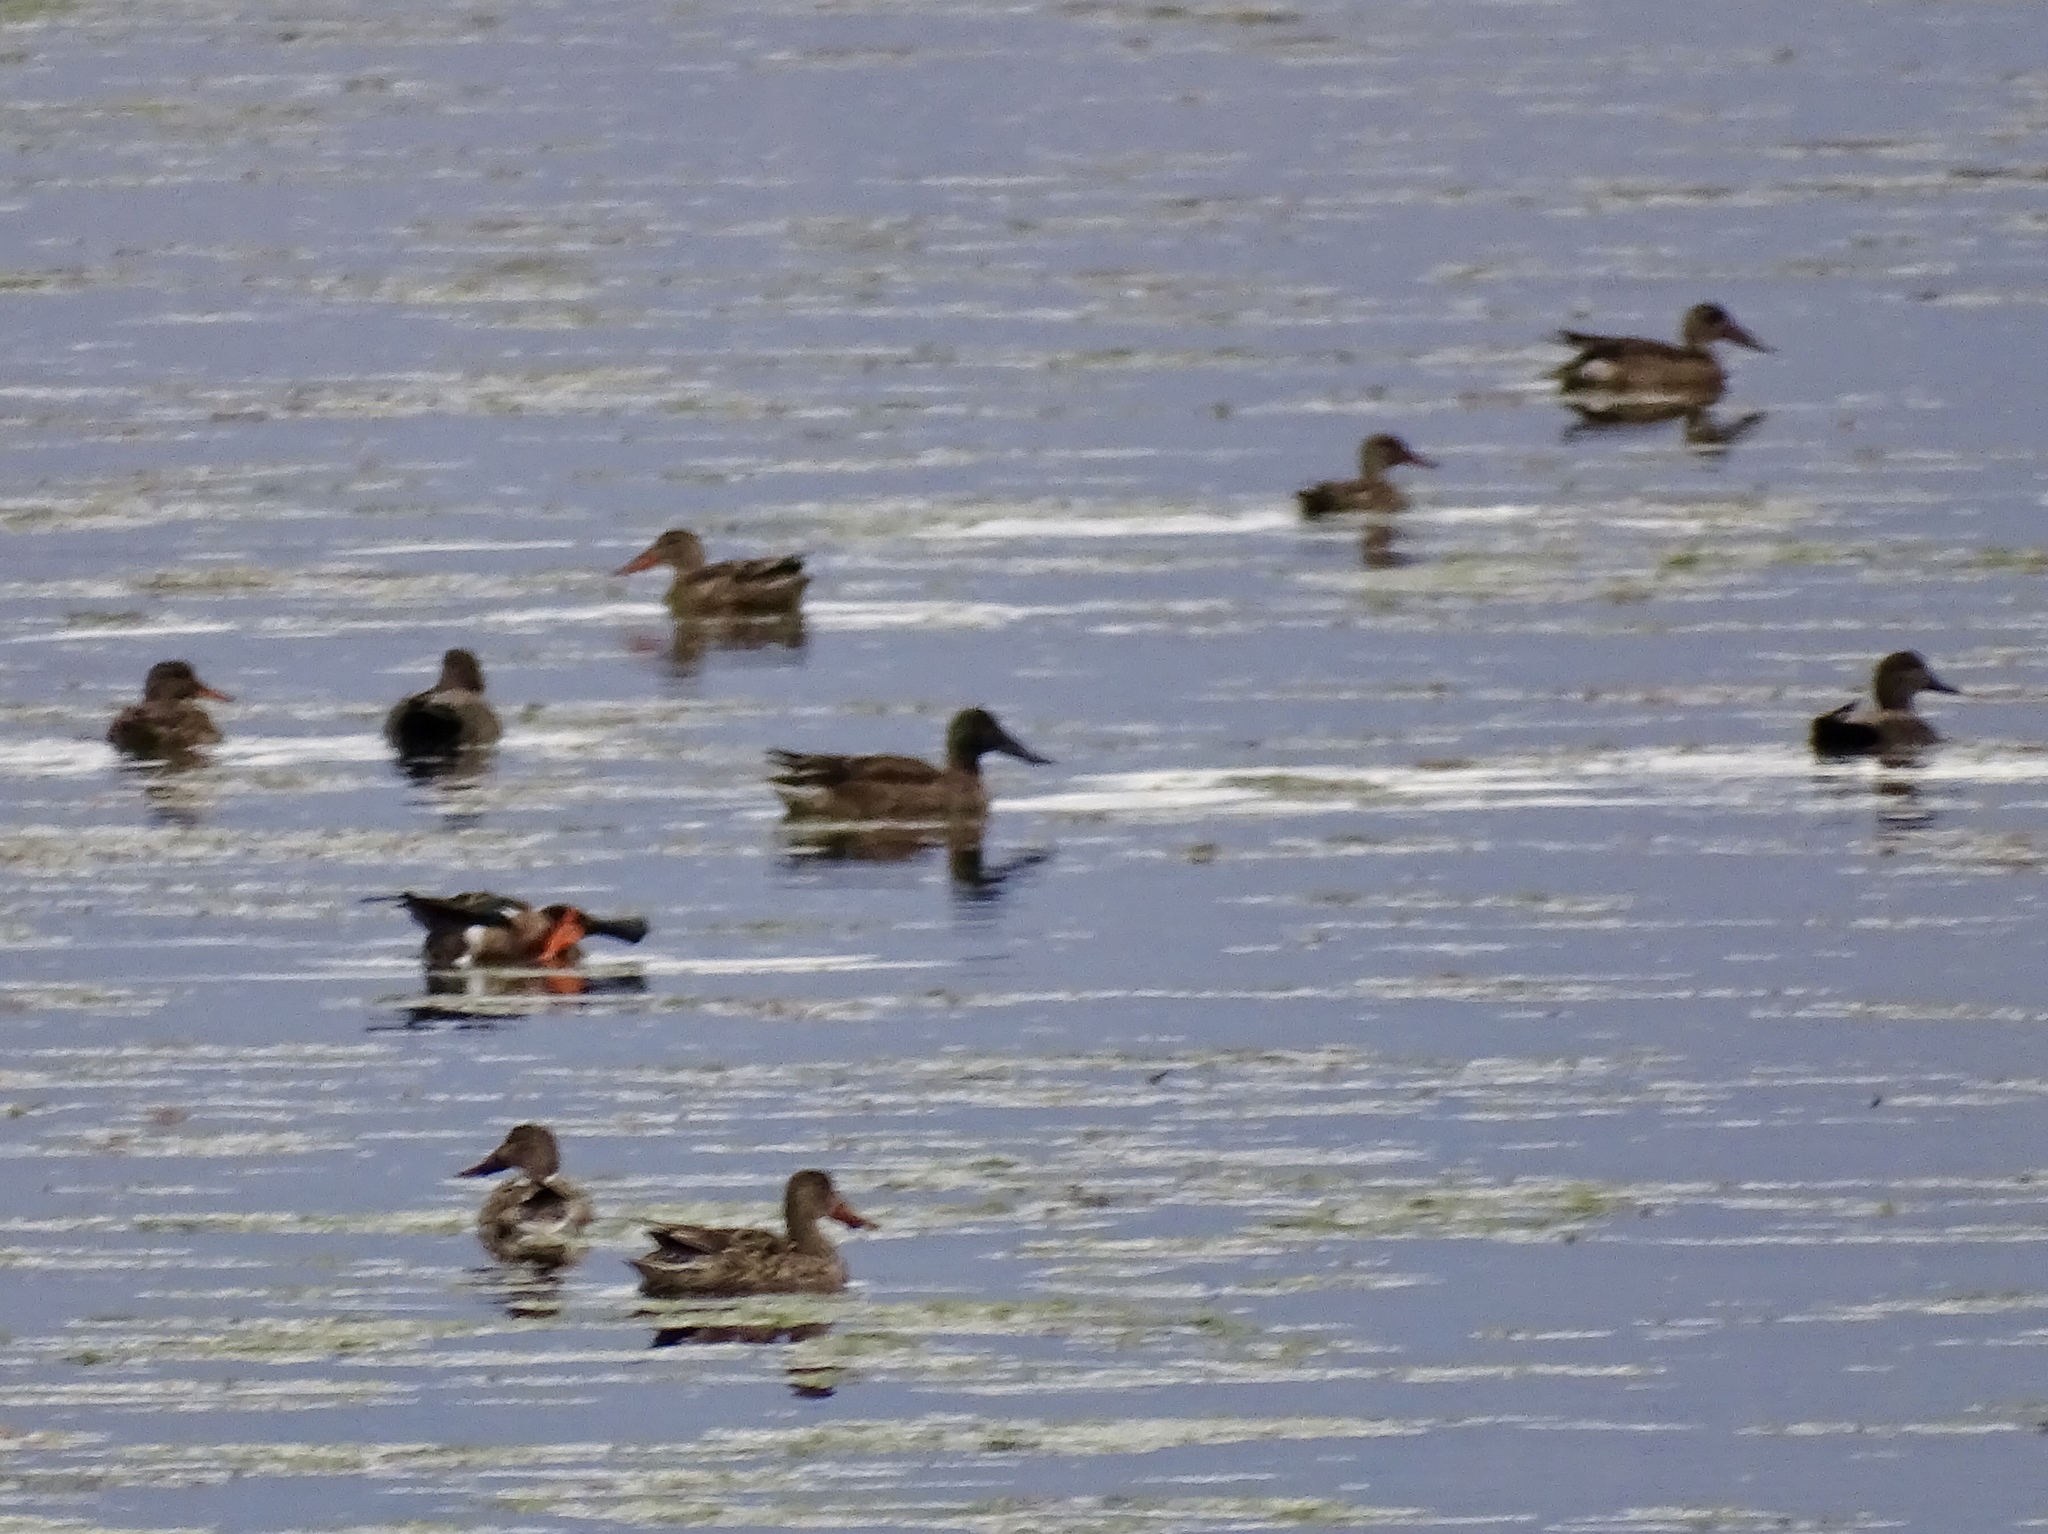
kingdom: Animalia
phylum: Chordata
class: Aves
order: Anseriformes
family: Anatidae
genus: Spatula
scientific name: Spatula clypeata
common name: Northern shoveler
